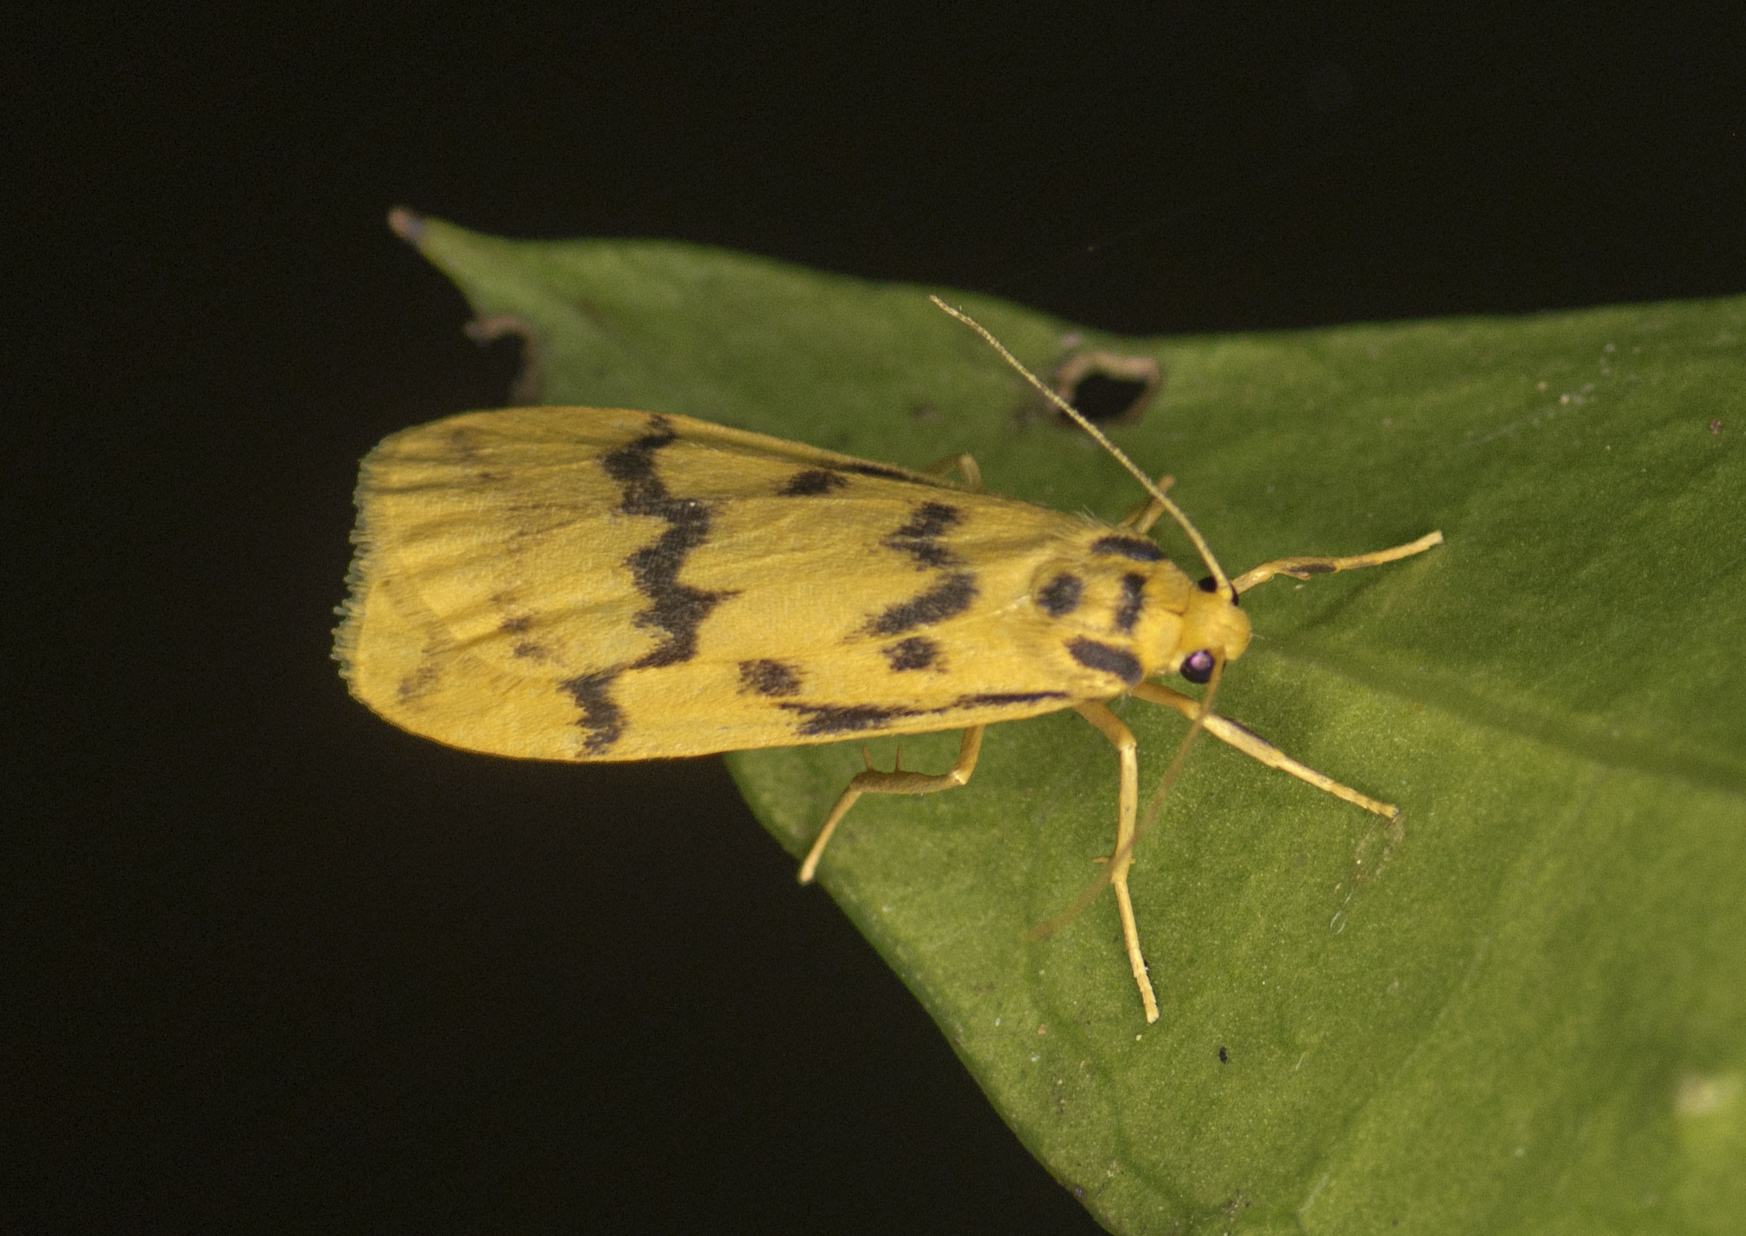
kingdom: Animalia
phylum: Arthropoda
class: Insecta
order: Lepidoptera
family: Erebidae
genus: Tigrioides
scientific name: Tigrioides alterna
